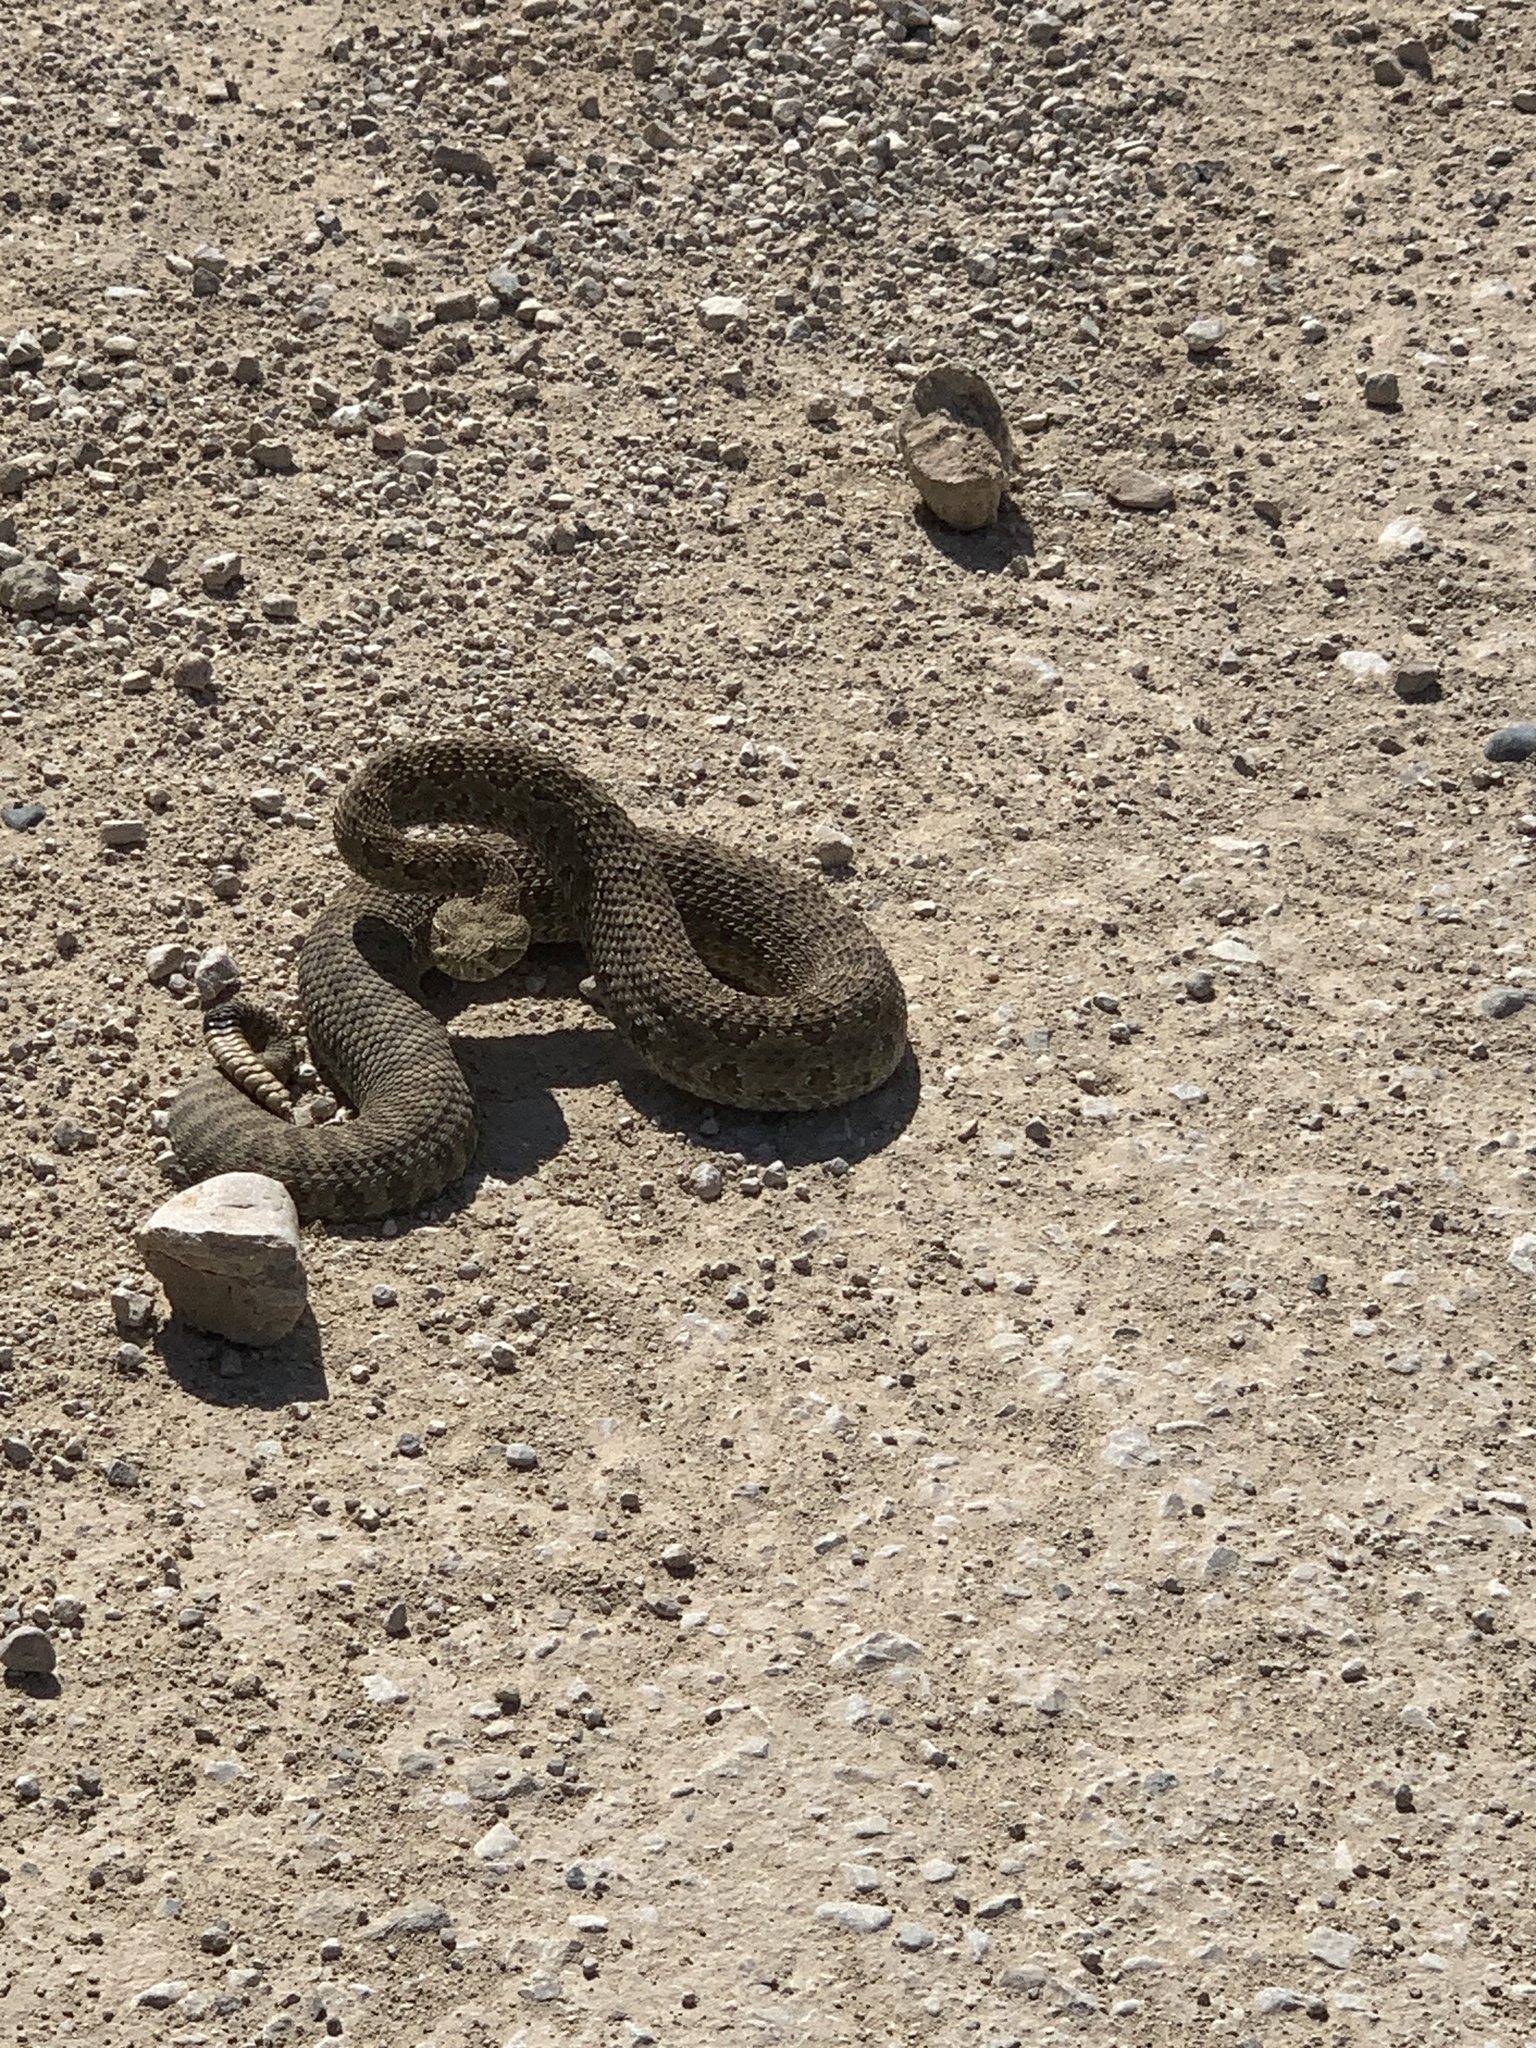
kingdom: Animalia
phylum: Chordata
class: Squamata
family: Viperidae
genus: Crotalus
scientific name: Crotalus viridis
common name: Prairie rattlesnake
